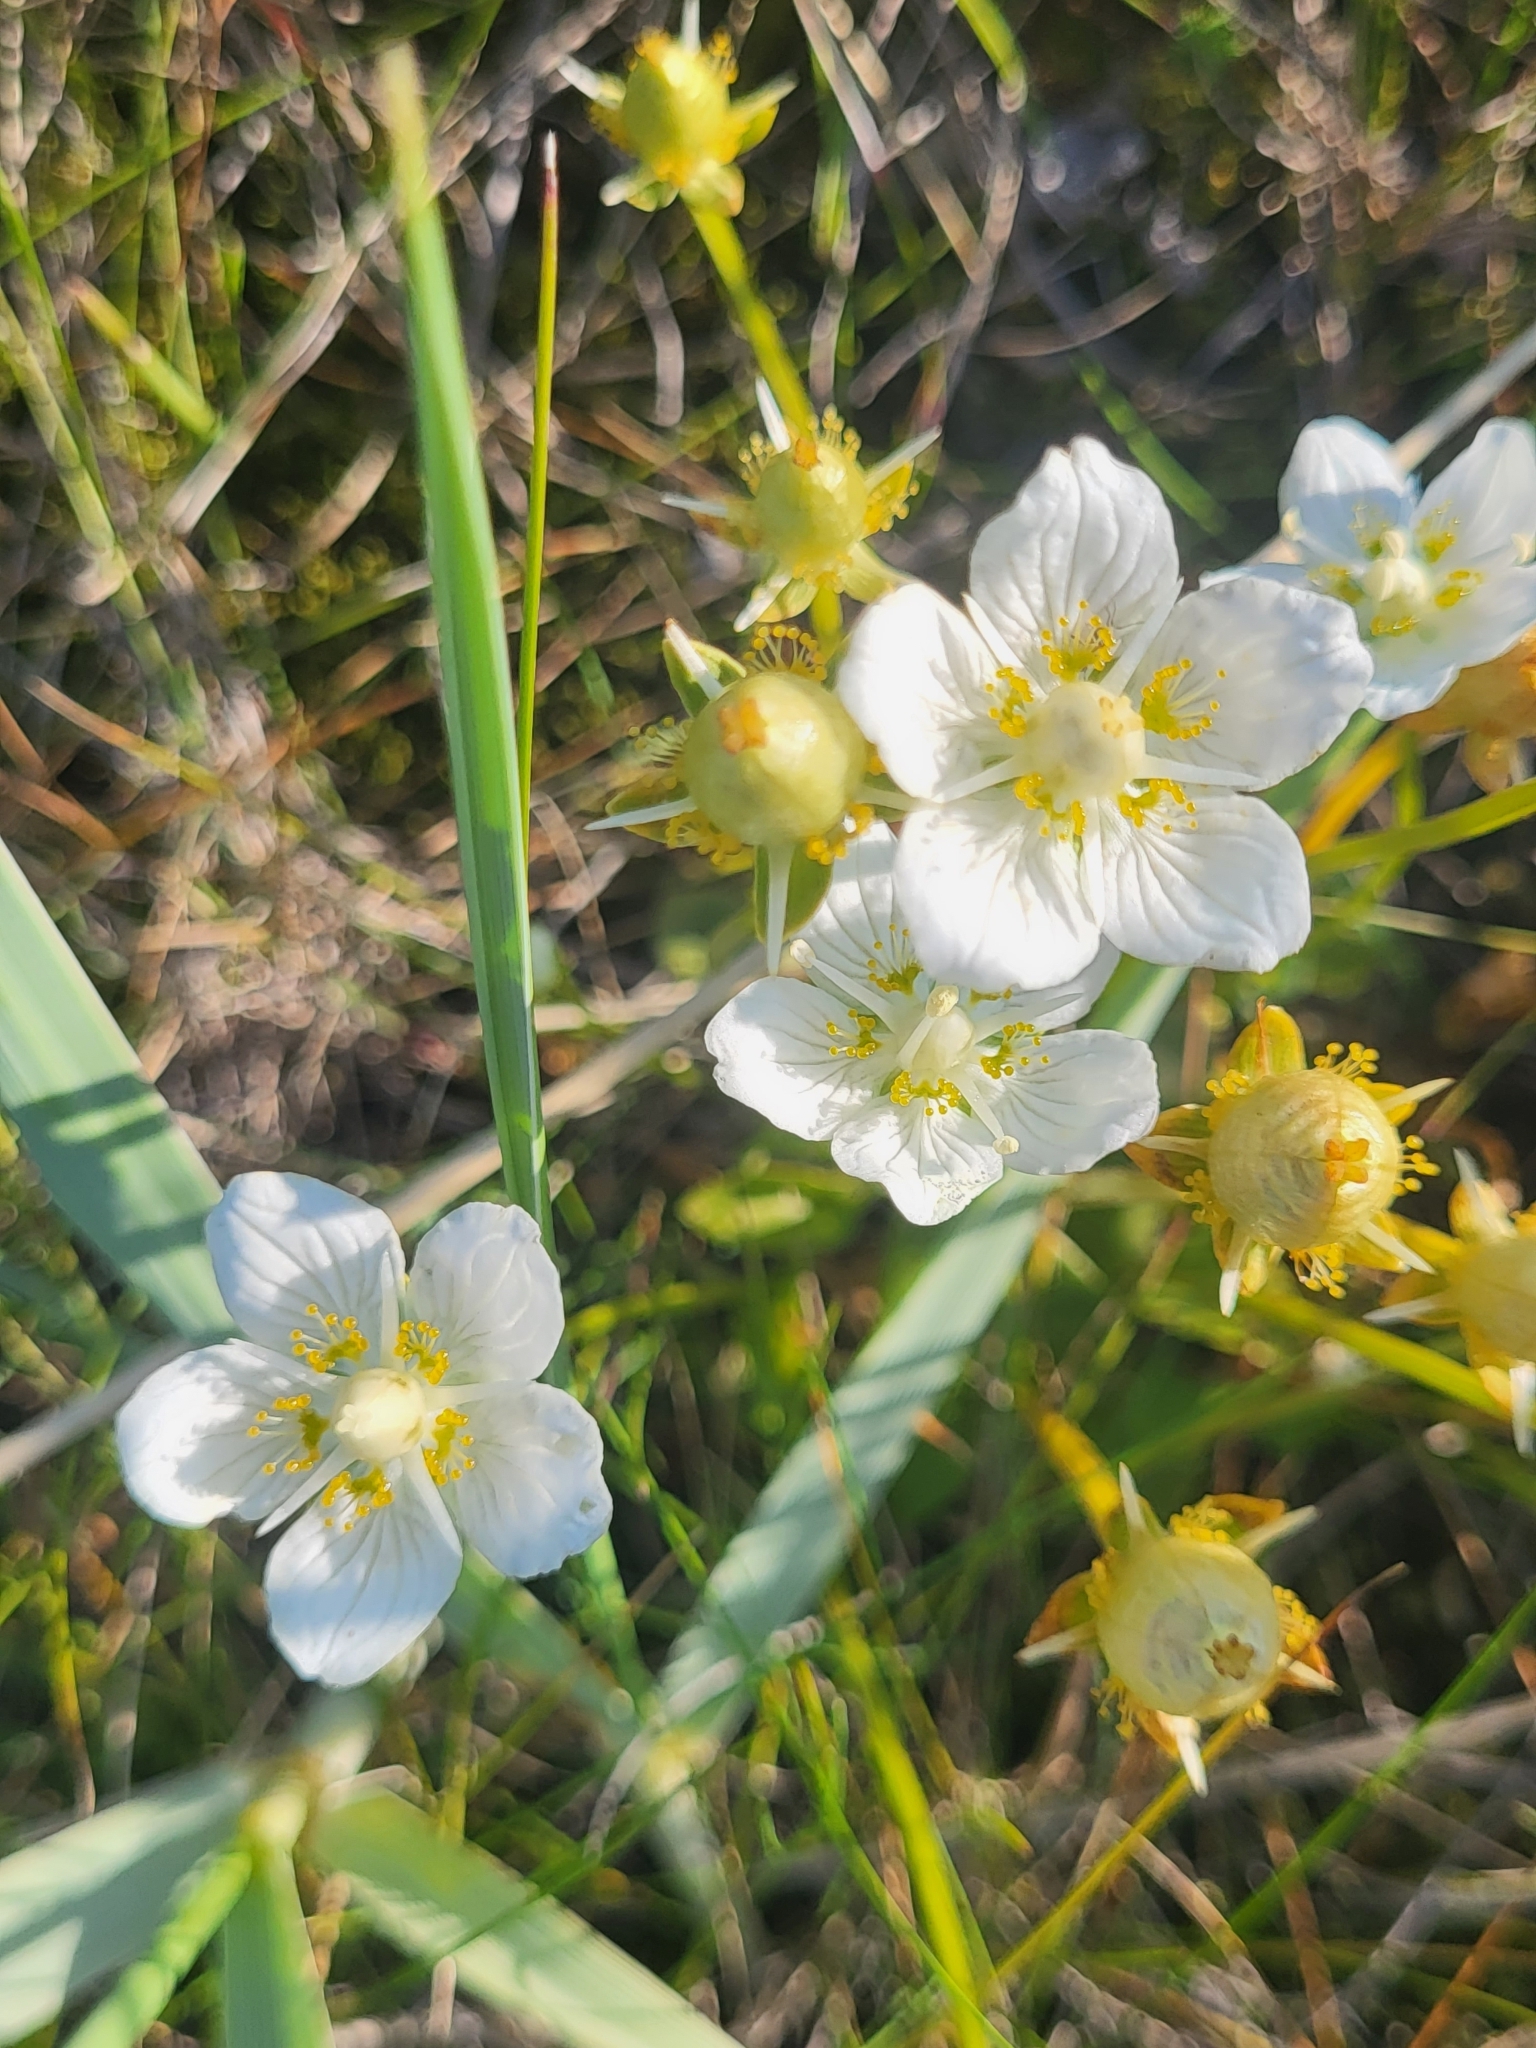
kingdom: Plantae
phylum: Tracheophyta
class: Magnoliopsida
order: Celastrales
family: Parnassiaceae
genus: Parnassia
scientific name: Parnassia palustris
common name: Grass-of-parnassus
